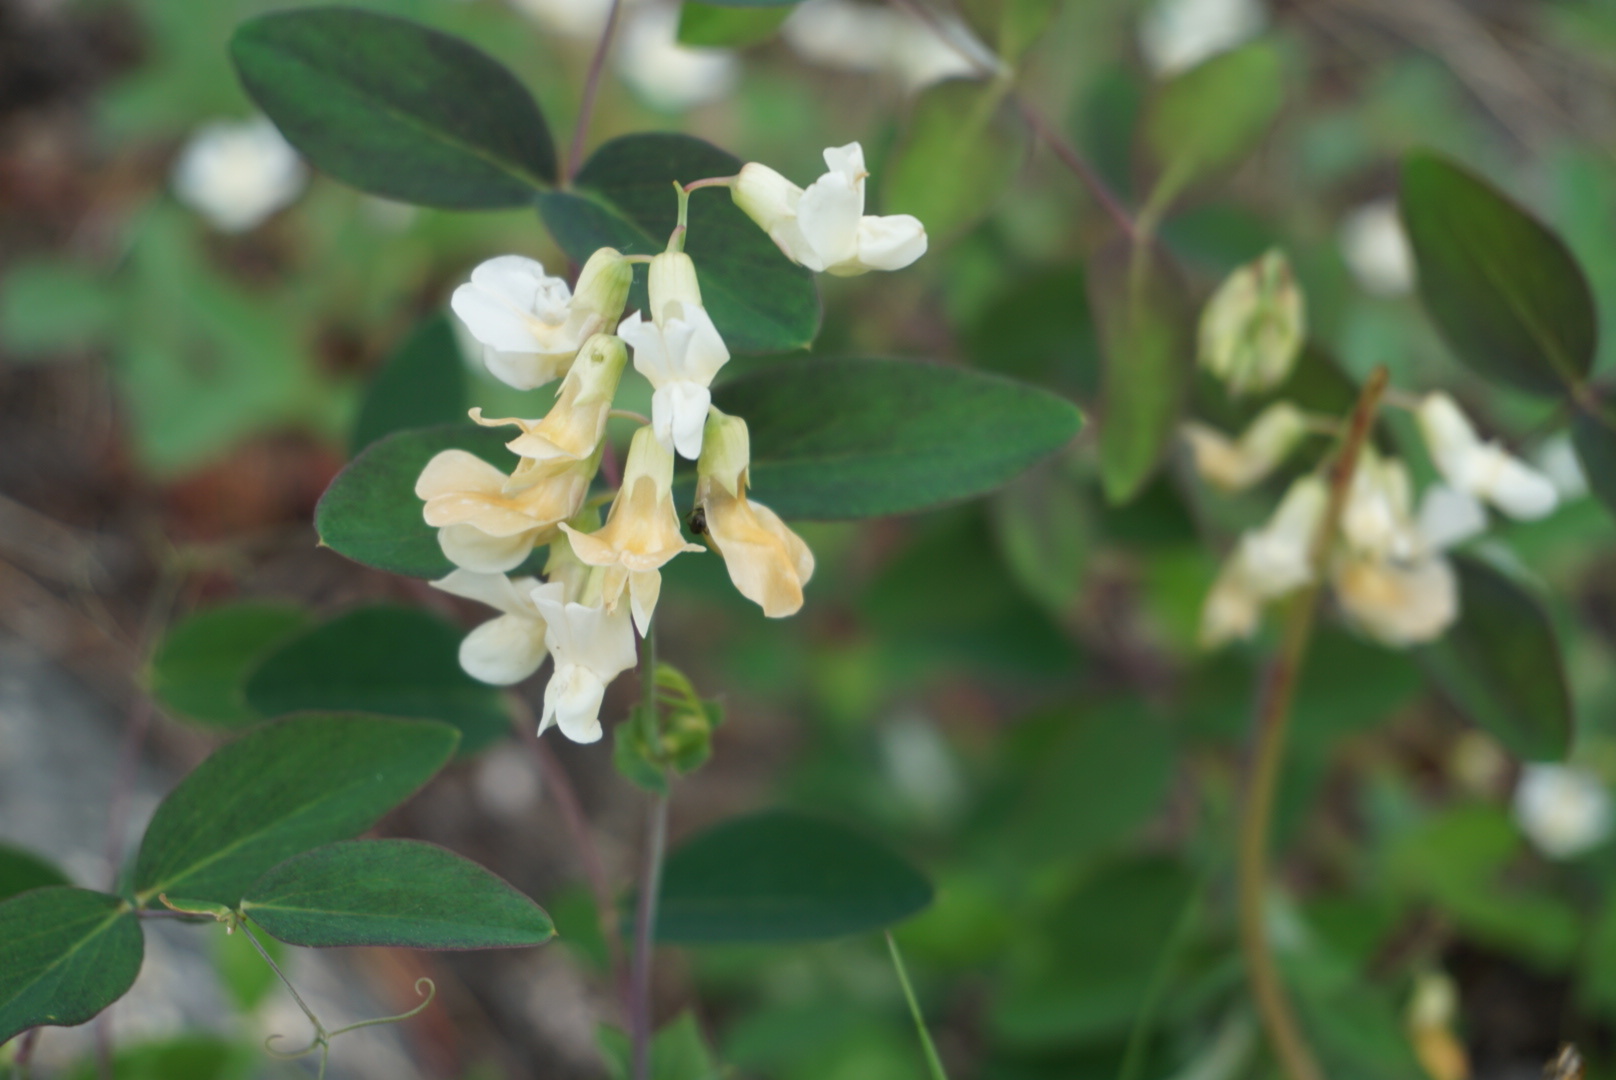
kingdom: Plantae
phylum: Tracheophyta
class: Magnoliopsida
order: Fabales
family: Fabaceae
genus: Lathyrus
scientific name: Lathyrus ochroleucus
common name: Pale vetchling
